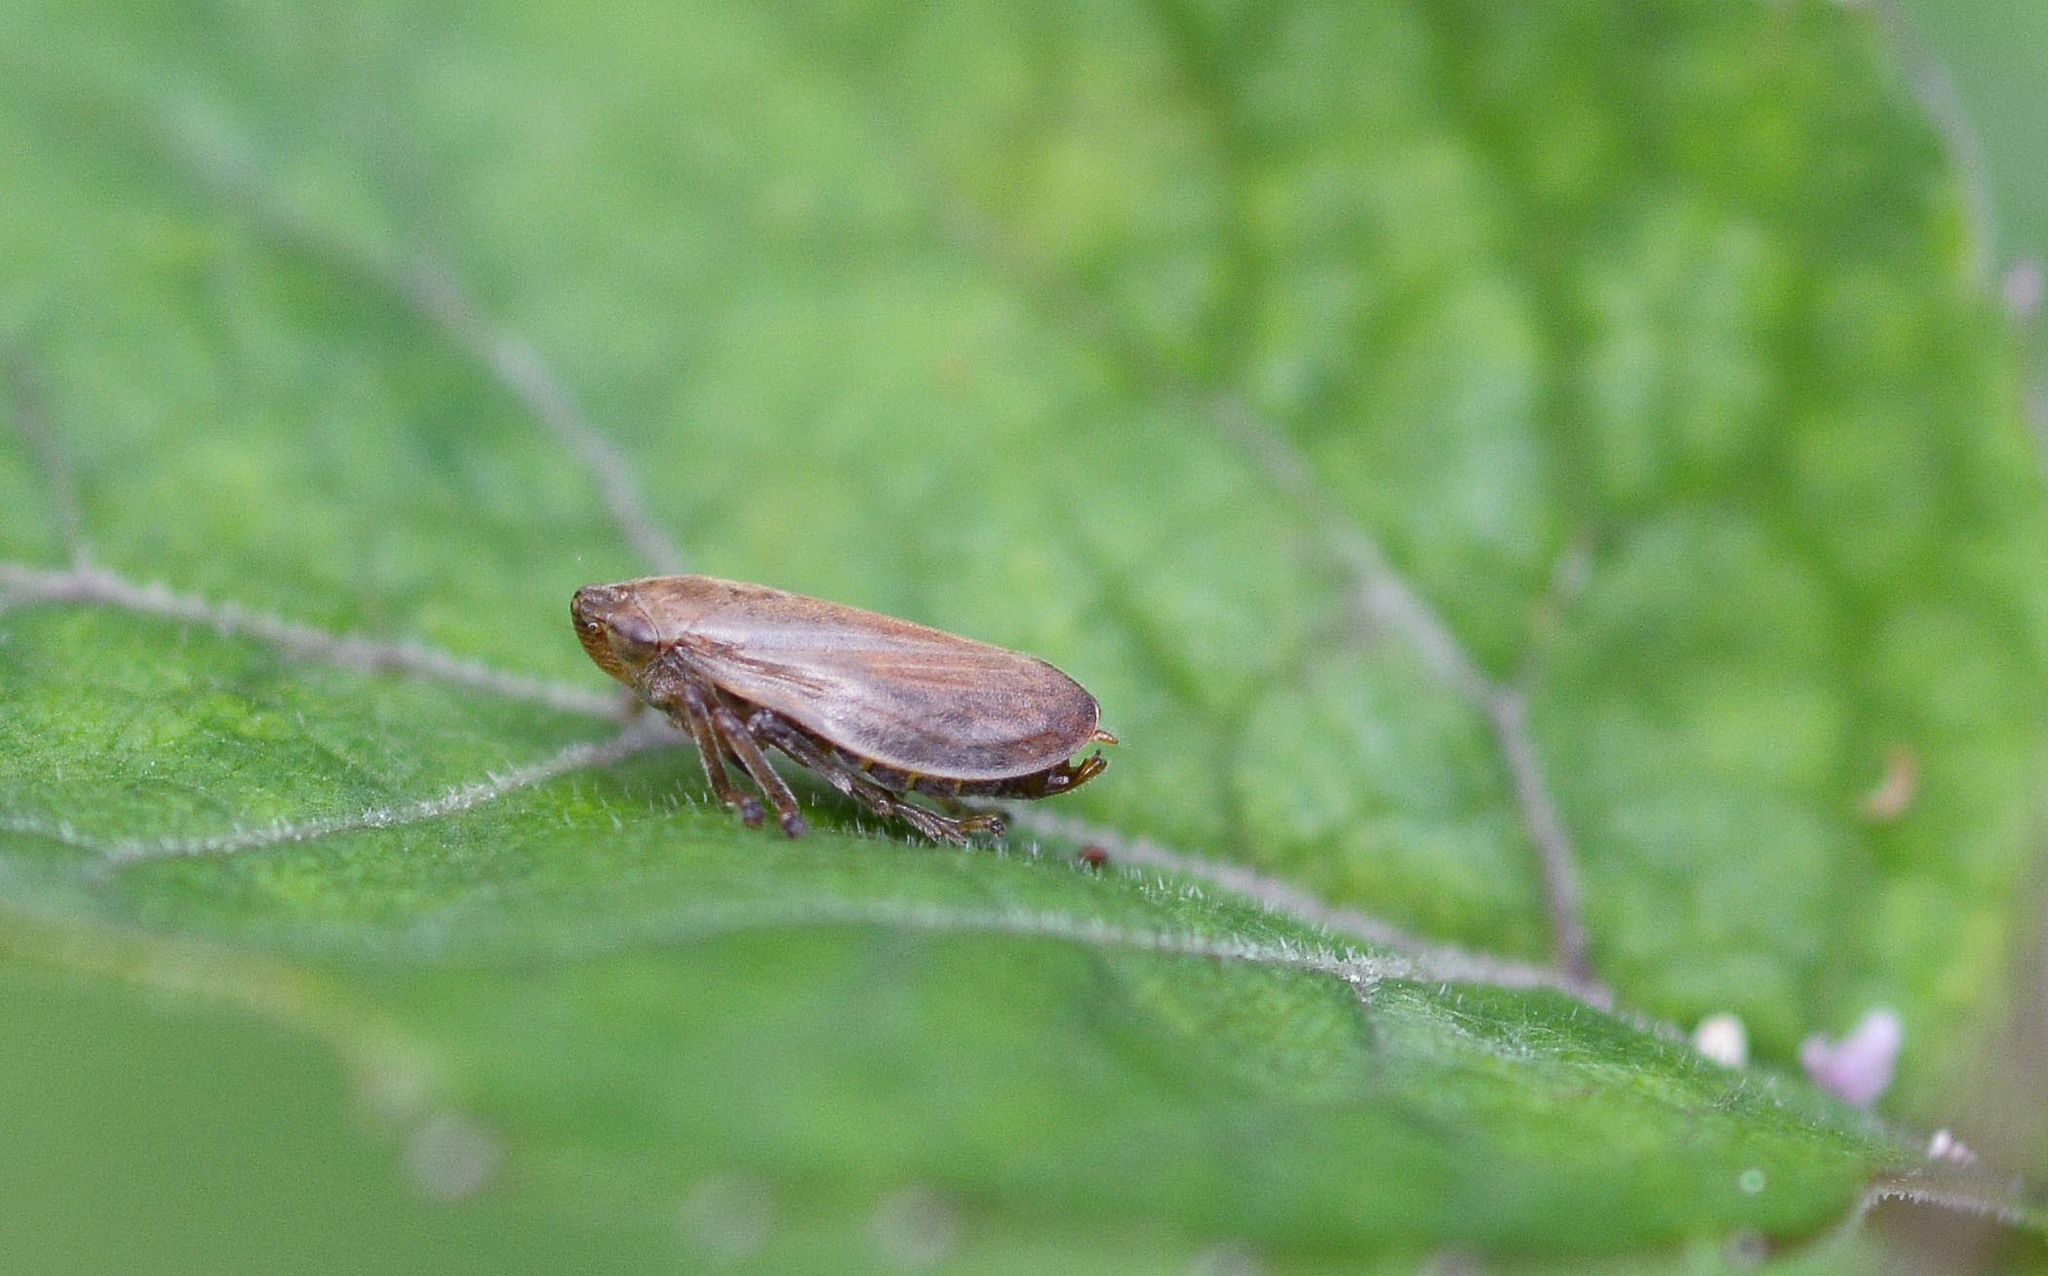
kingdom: Animalia
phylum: Arthropoda
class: Insecta
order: Hemiptera
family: Aphrophoridae
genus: Philaenus
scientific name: Philaenus spumarius
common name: Meadow spittlebug
